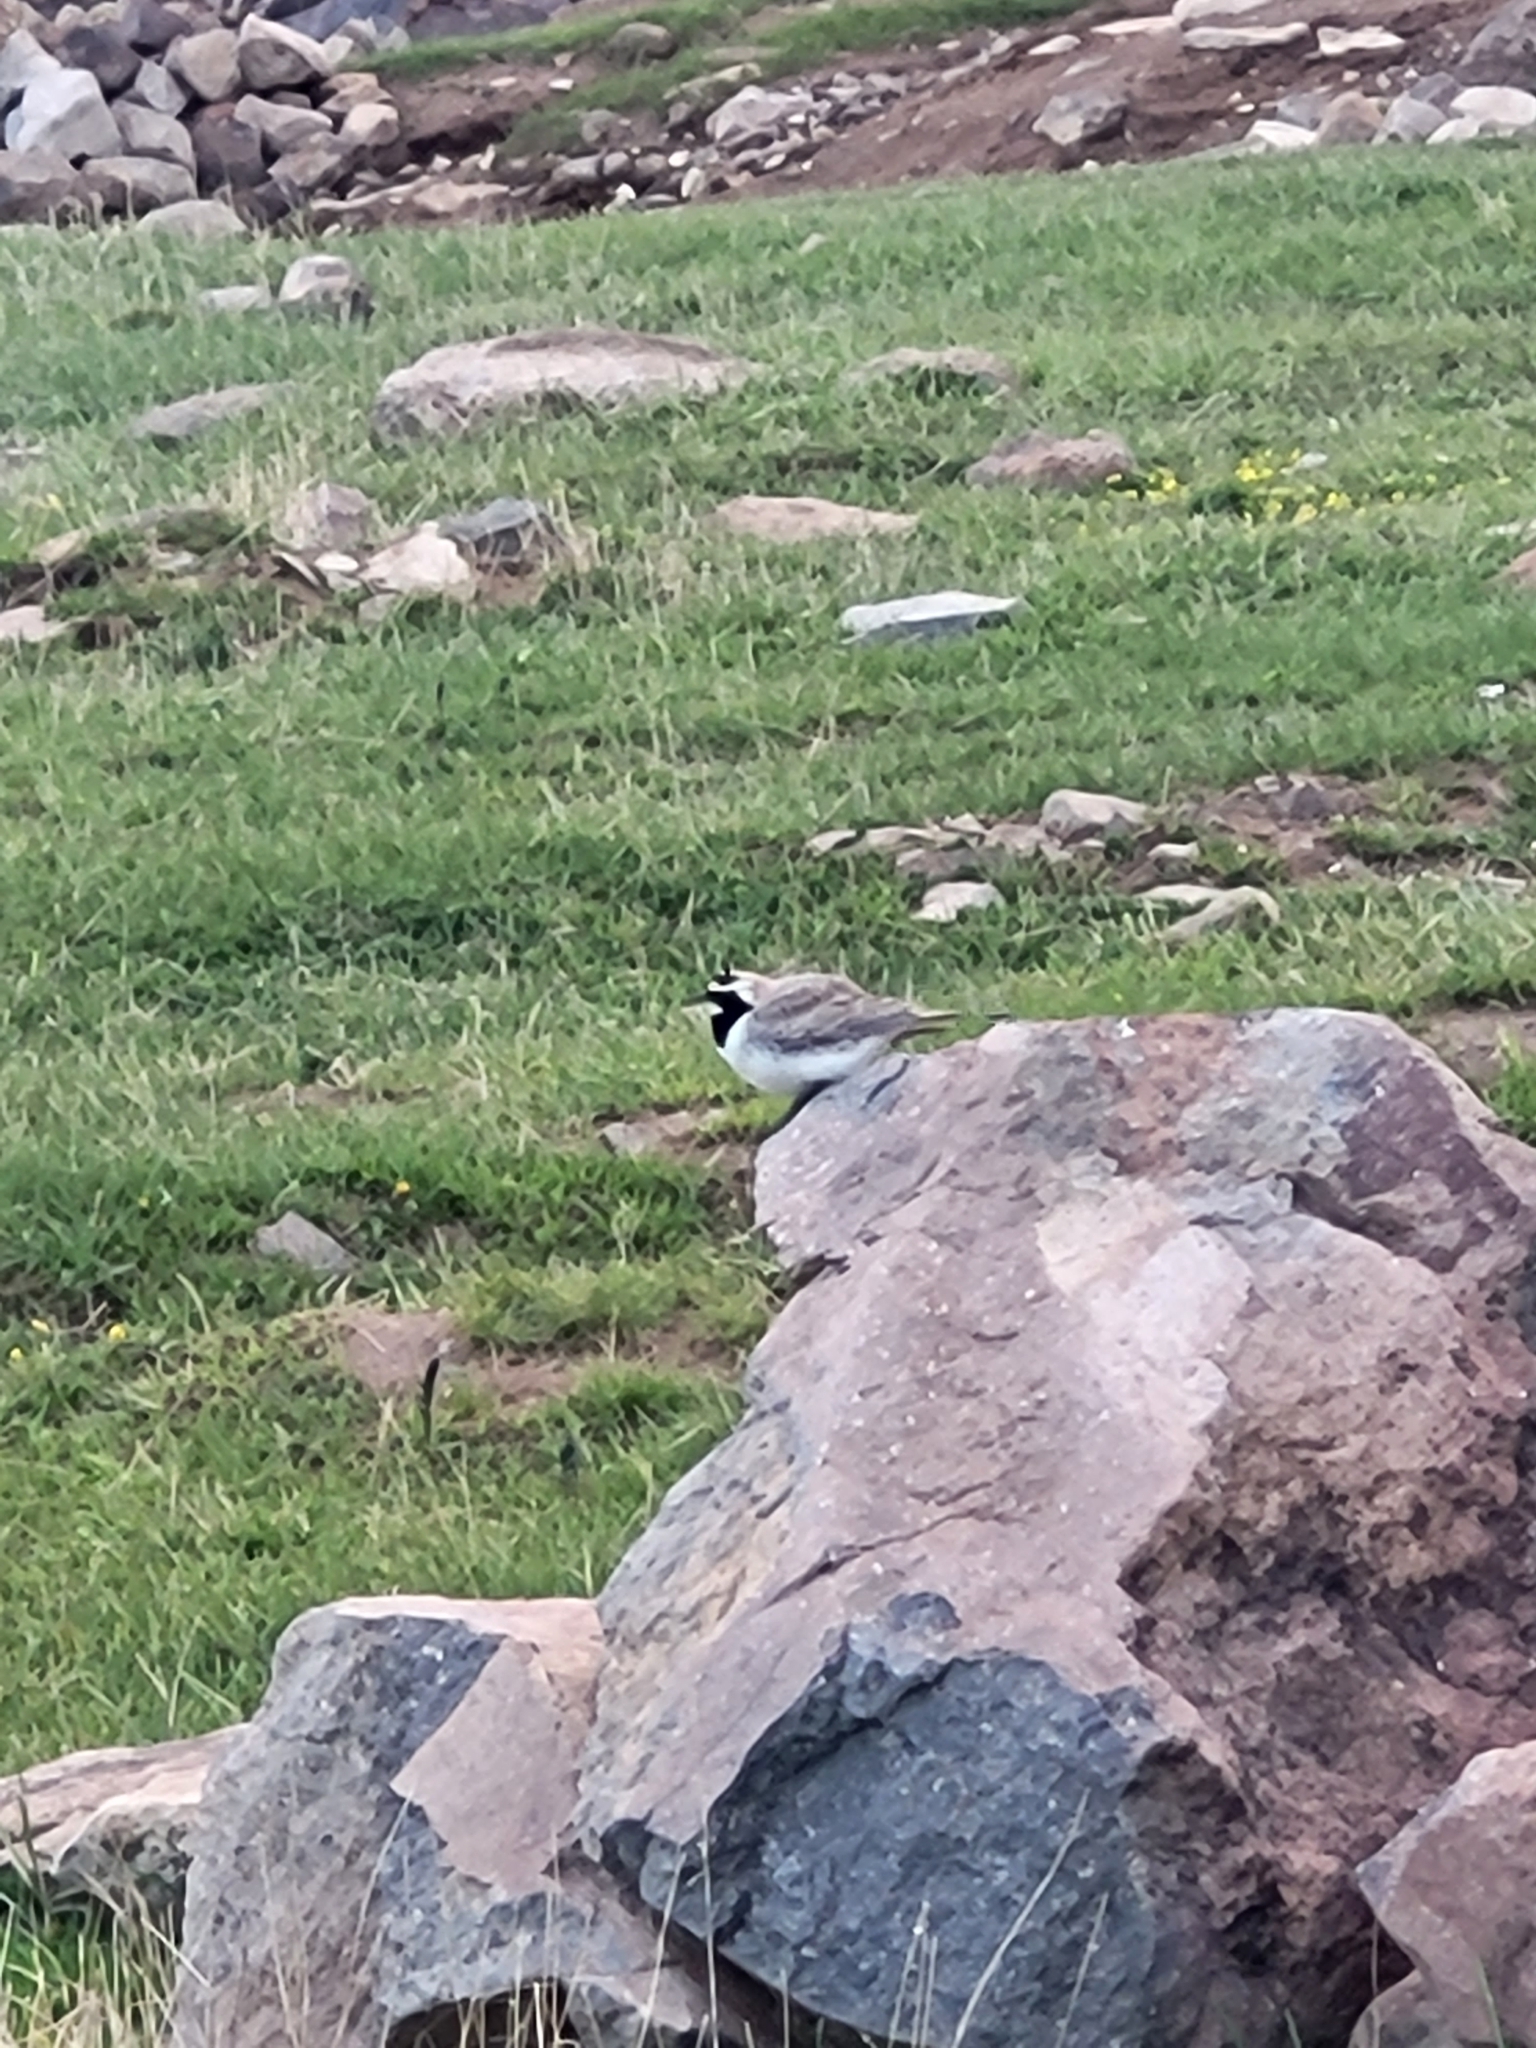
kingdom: Animalia
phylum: Chordata
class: Aves
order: Passeriformes
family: Alaudidae
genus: Eremophila
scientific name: Eremophila alpestris
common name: Horned lark
